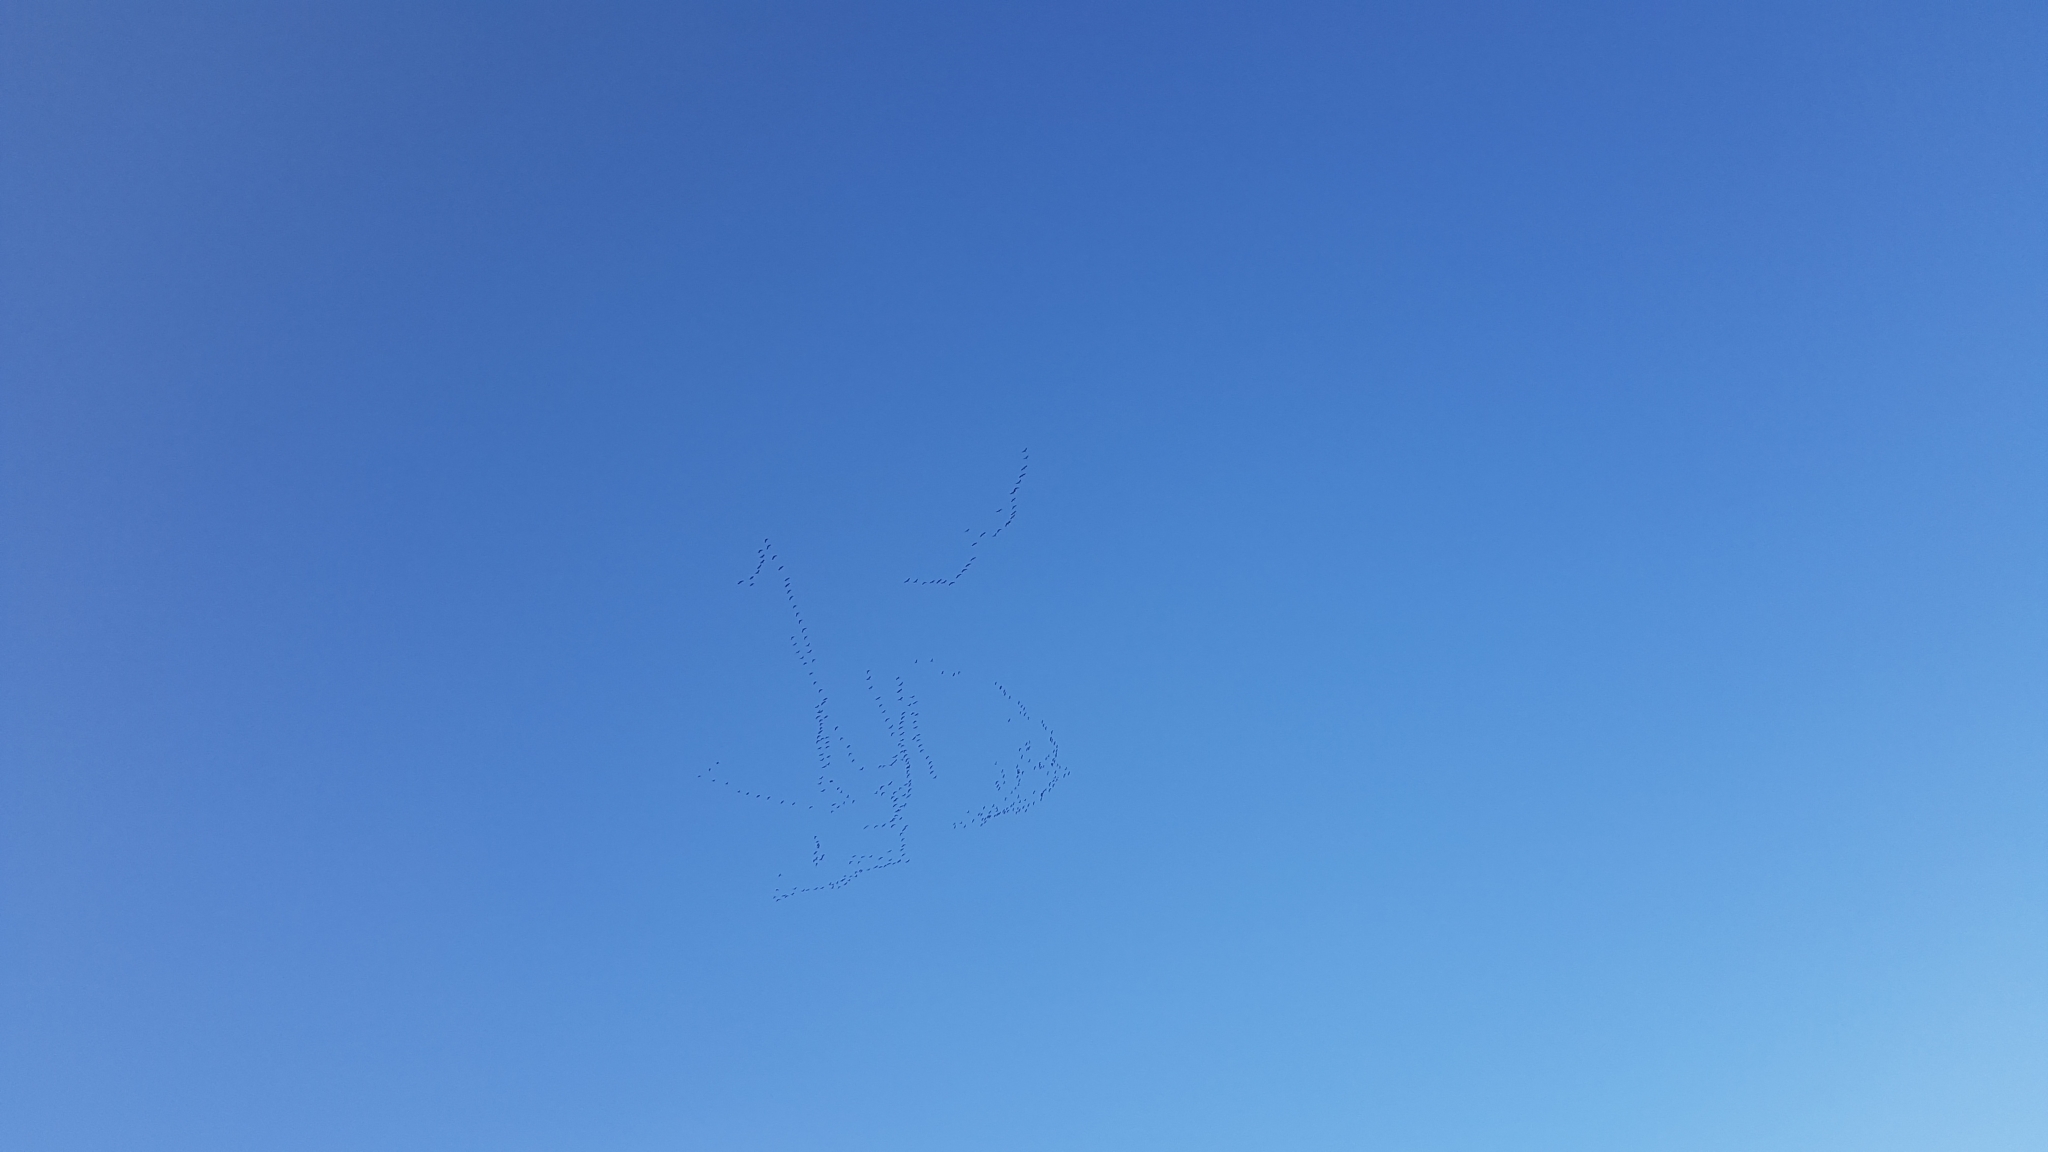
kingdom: Animalia
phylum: Chordata
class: Aves
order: Gruiformes
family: Gruidae
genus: Grus
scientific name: Grus grus
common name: Common crane
